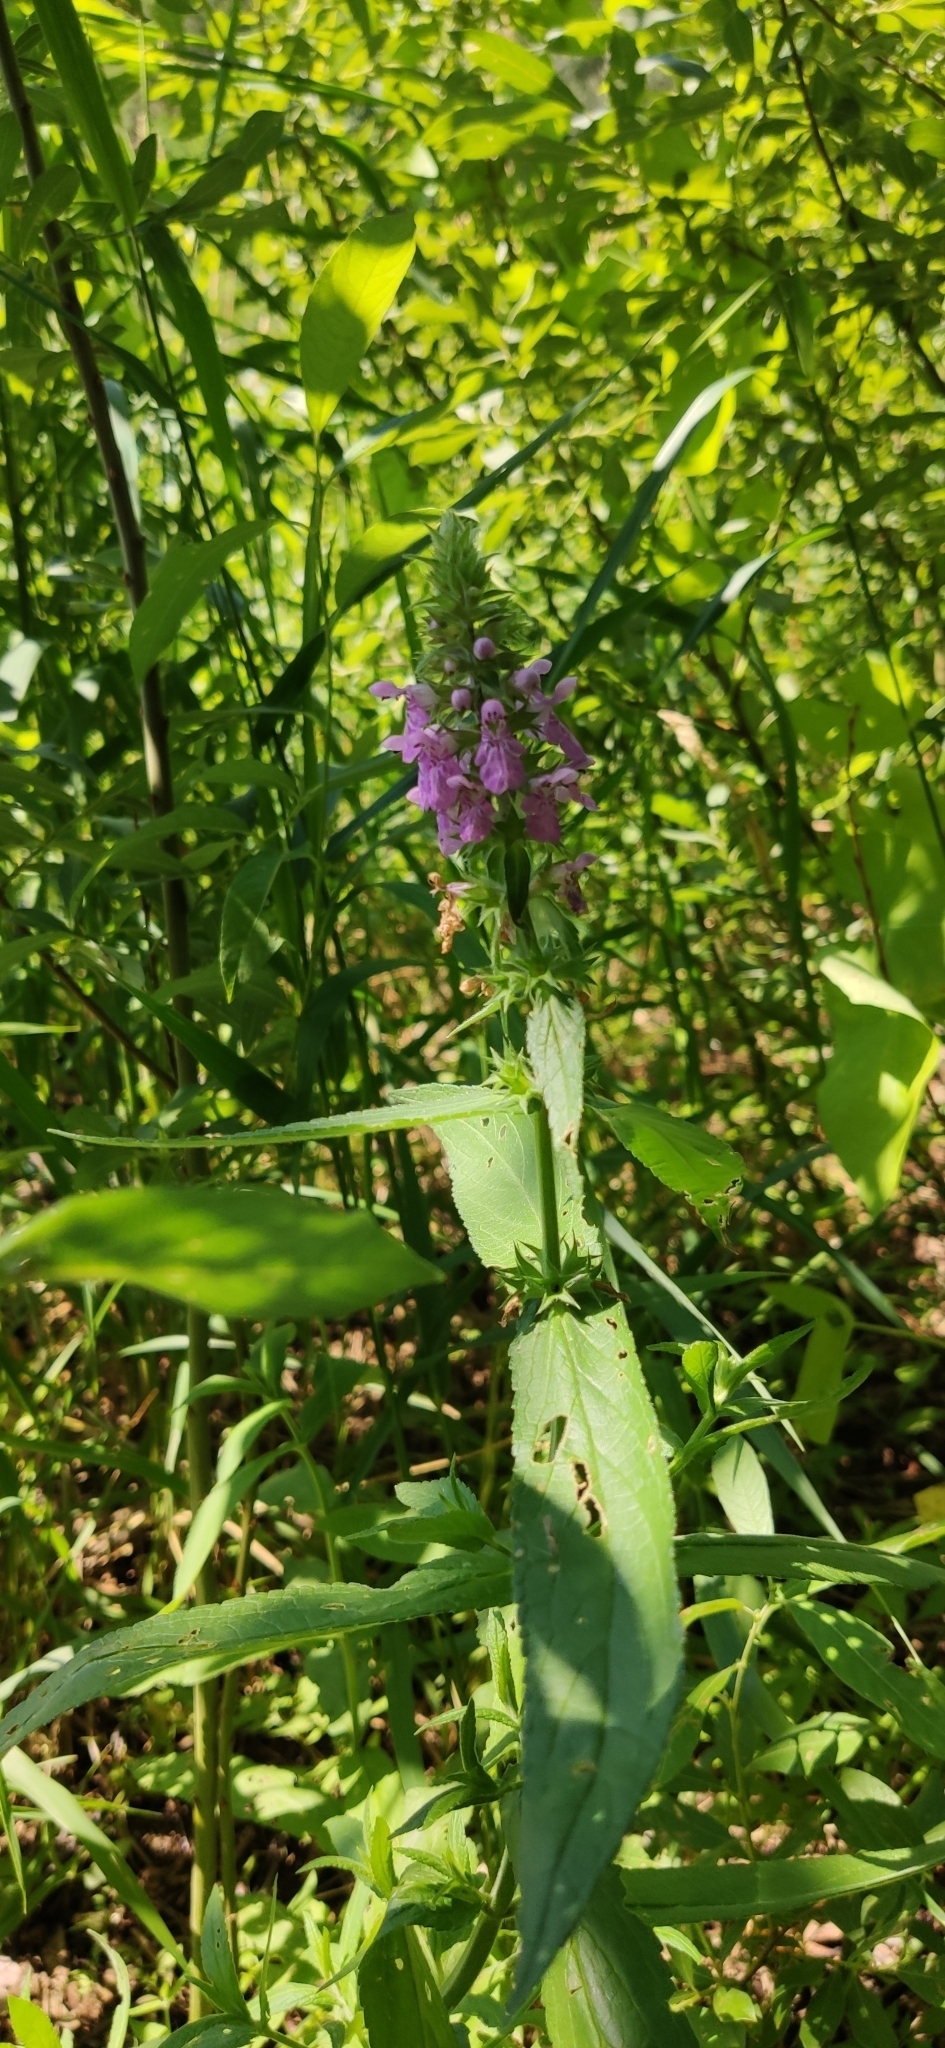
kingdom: Plantae
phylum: Tracheophyta
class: Magnoliopsida
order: Lamiales
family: Lamiaceae
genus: Stachys
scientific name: Stachys palustris
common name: Marsh woundwort
